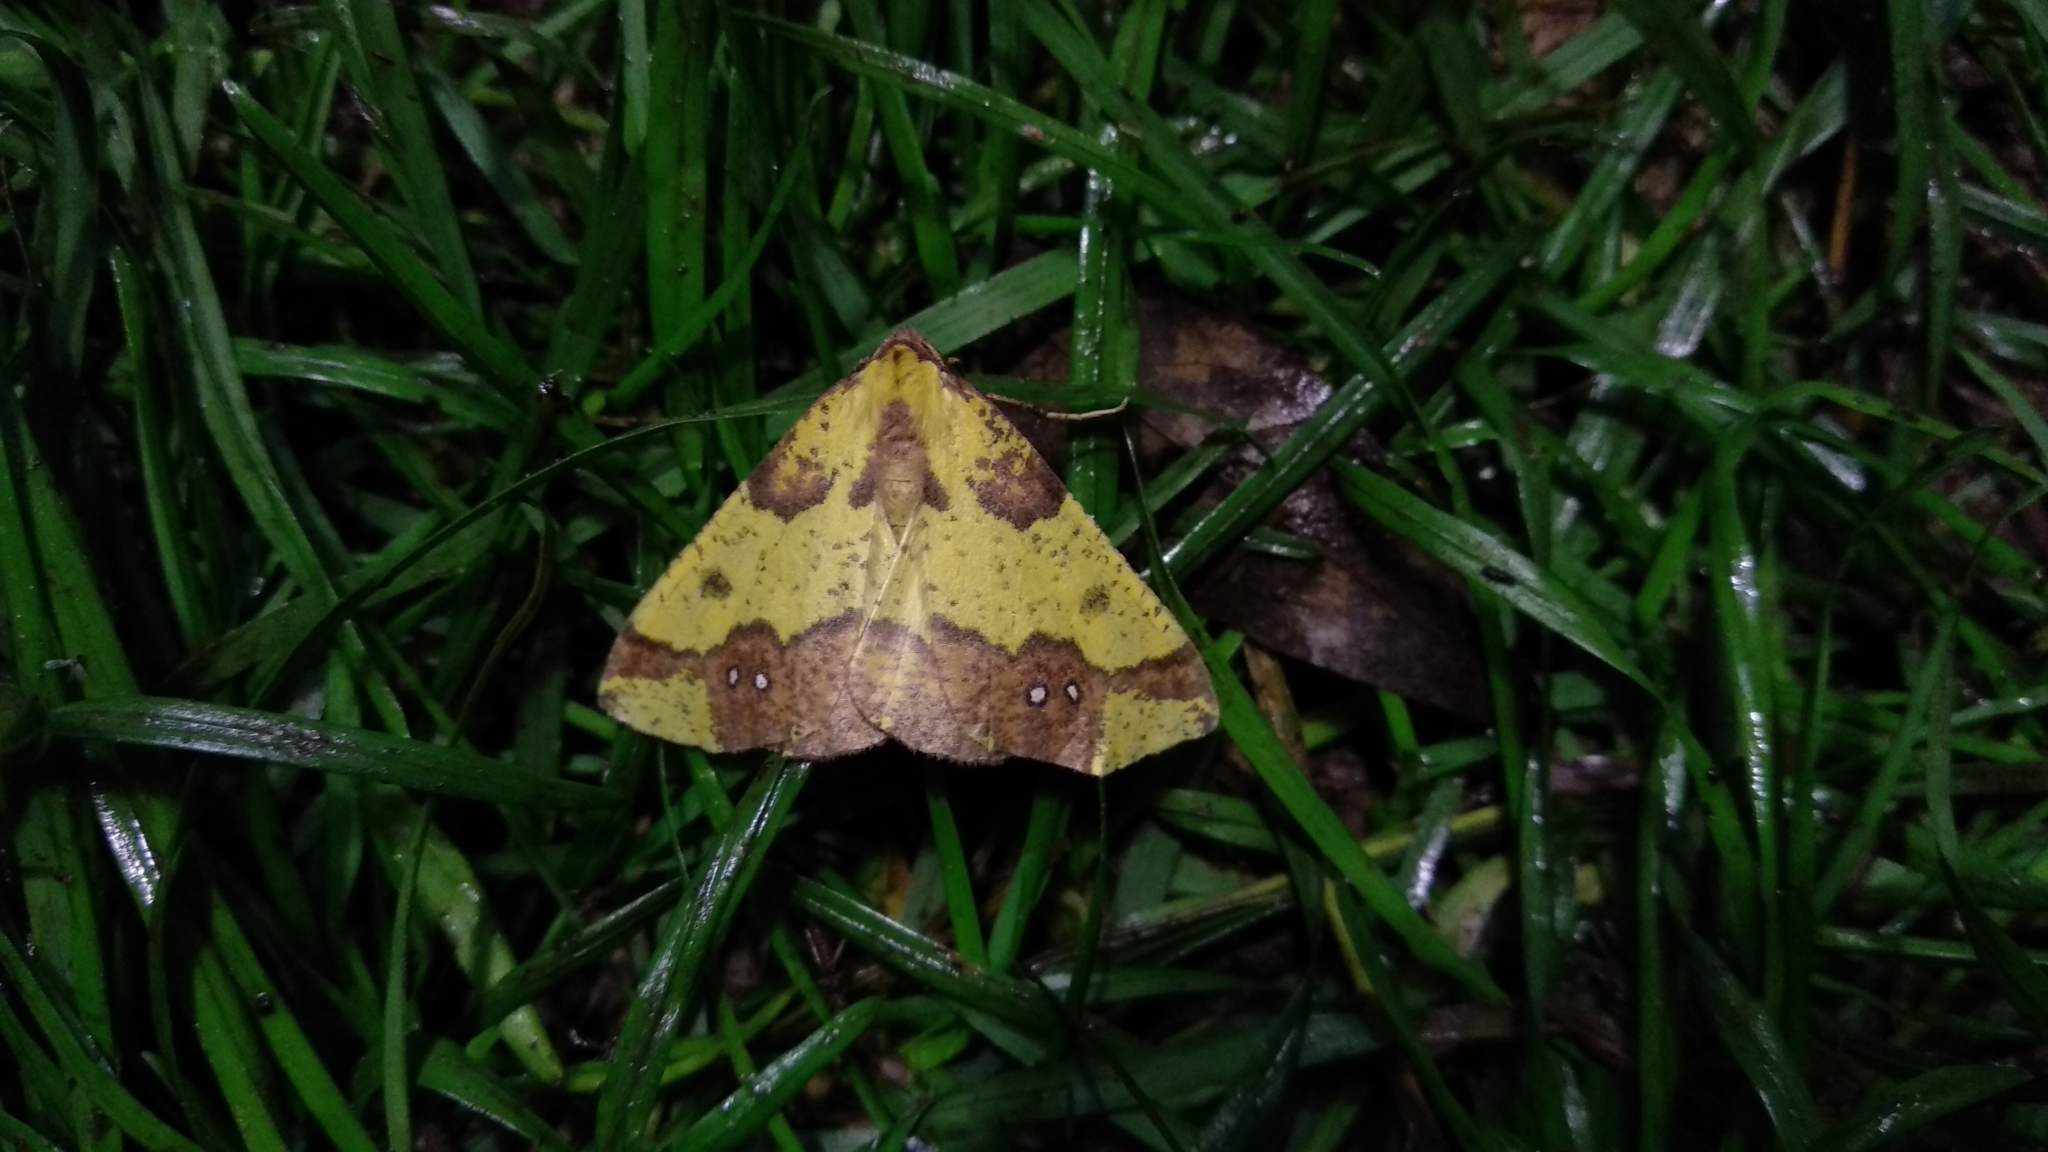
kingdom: Animalia
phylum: Arthropoda
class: Insecta
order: Lepidoptera
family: Geometridae
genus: Apocolotois
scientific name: Apocolotois arnoldiaria
